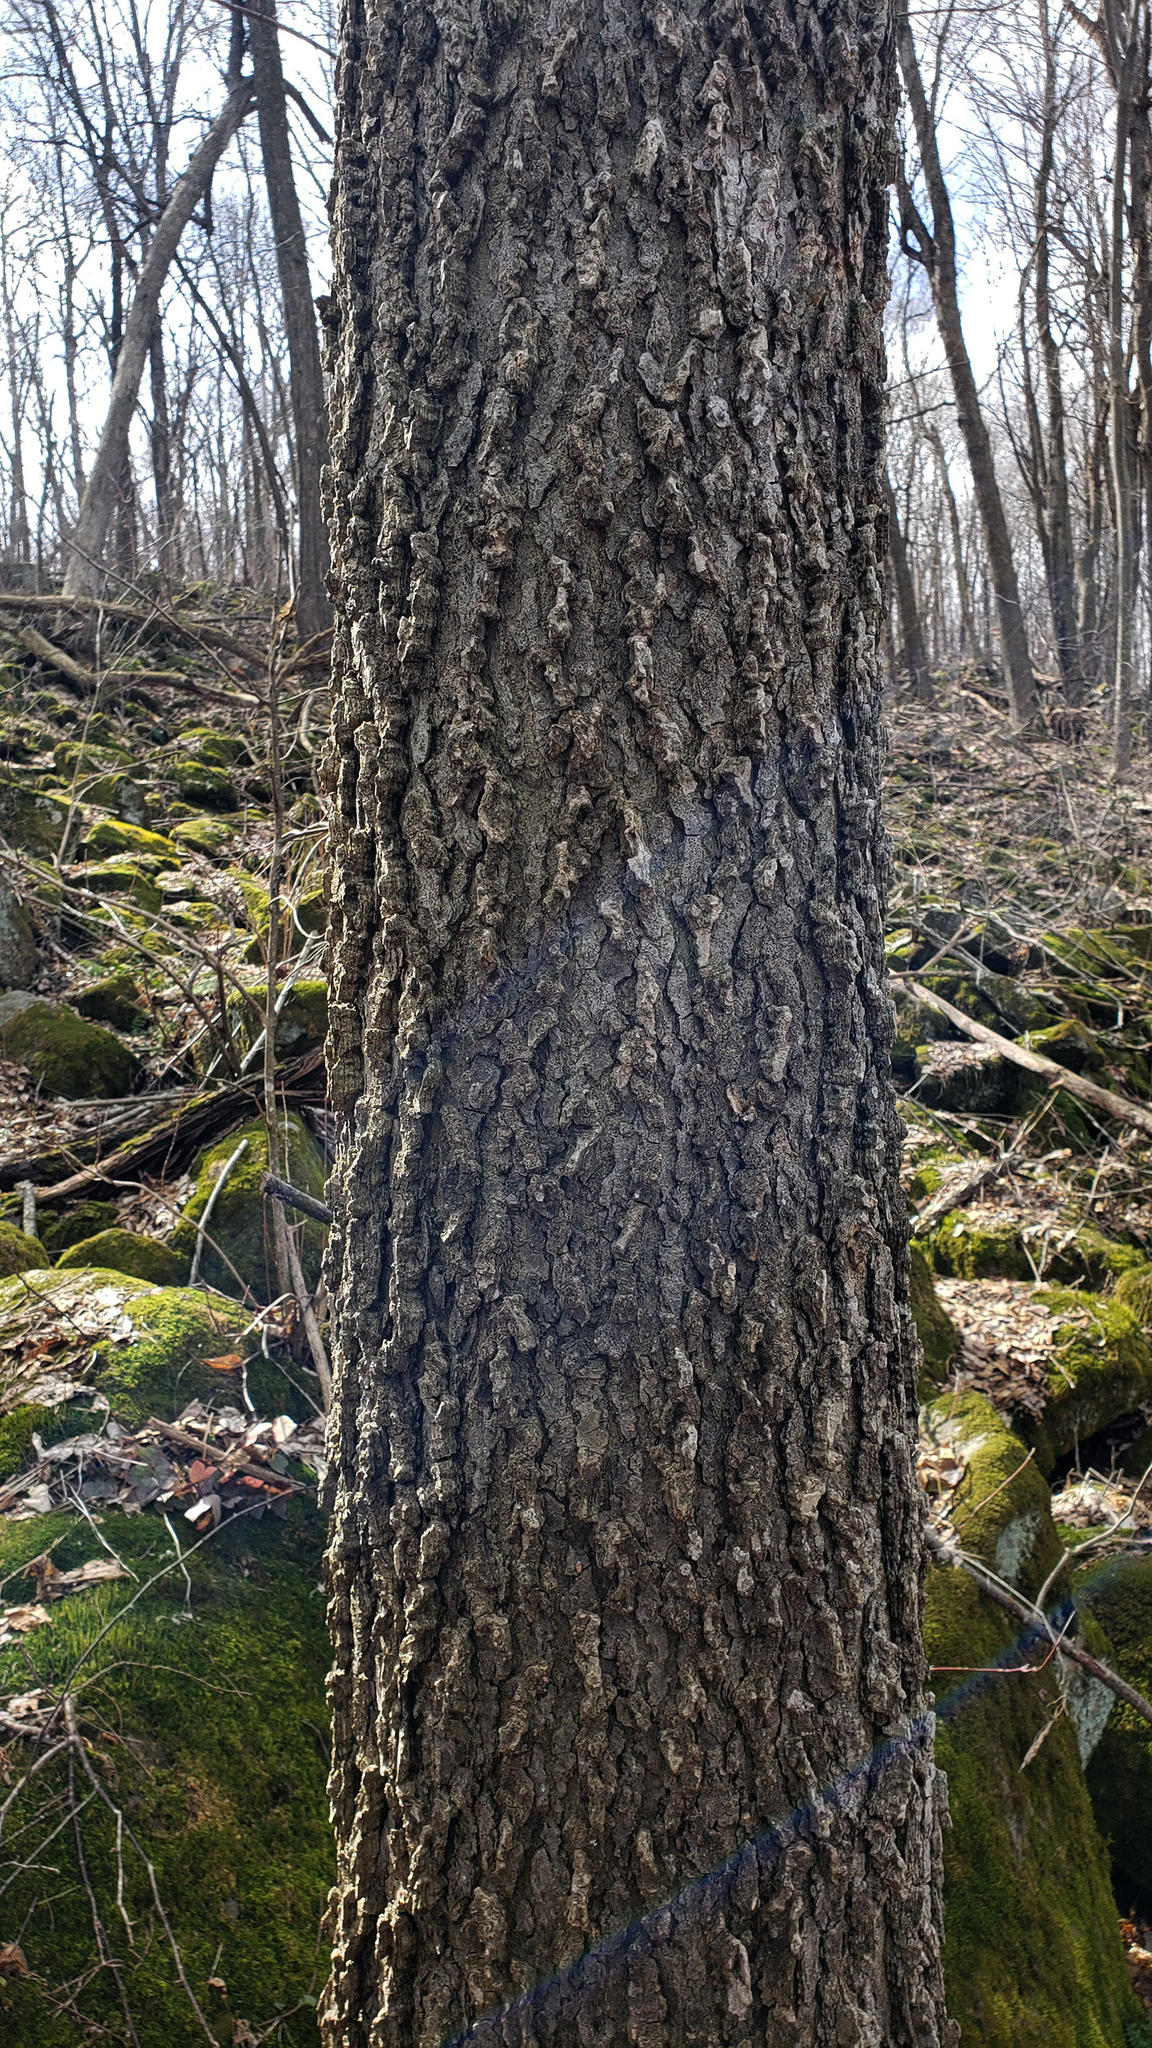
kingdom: Plantae
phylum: Tracheophyta
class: Magnoliopsida
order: Rosales
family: Cannabaceae
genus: Celtis
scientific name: Celtis occidentalis
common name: Common hackberry
